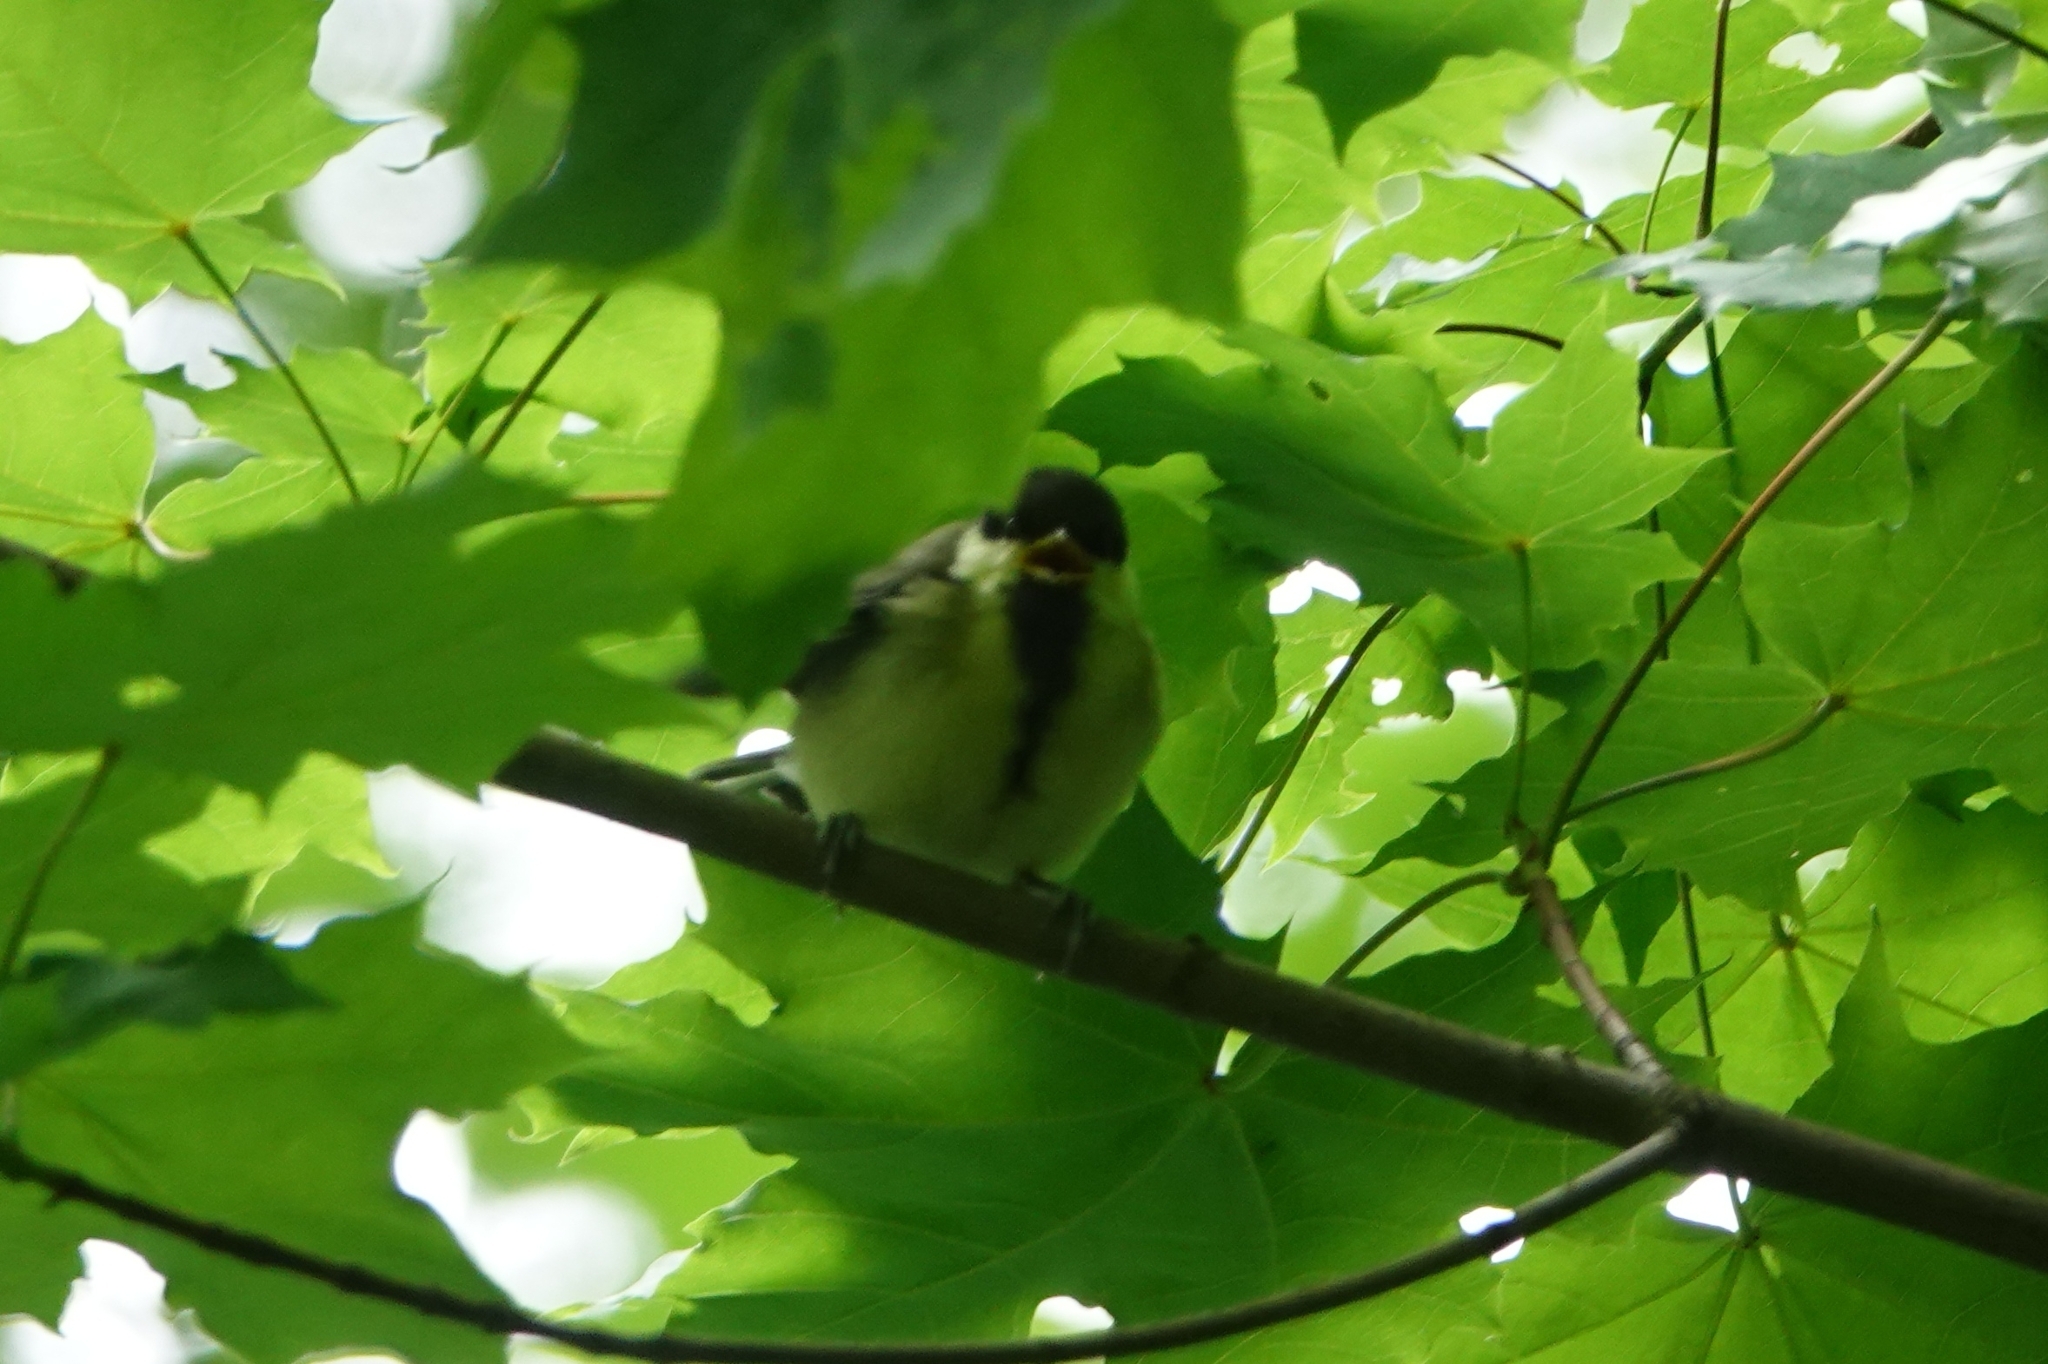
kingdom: Animalia
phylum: Chordata
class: Aves
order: Passeriformes
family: Paridae
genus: Parus
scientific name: Parus major
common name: Great tit
